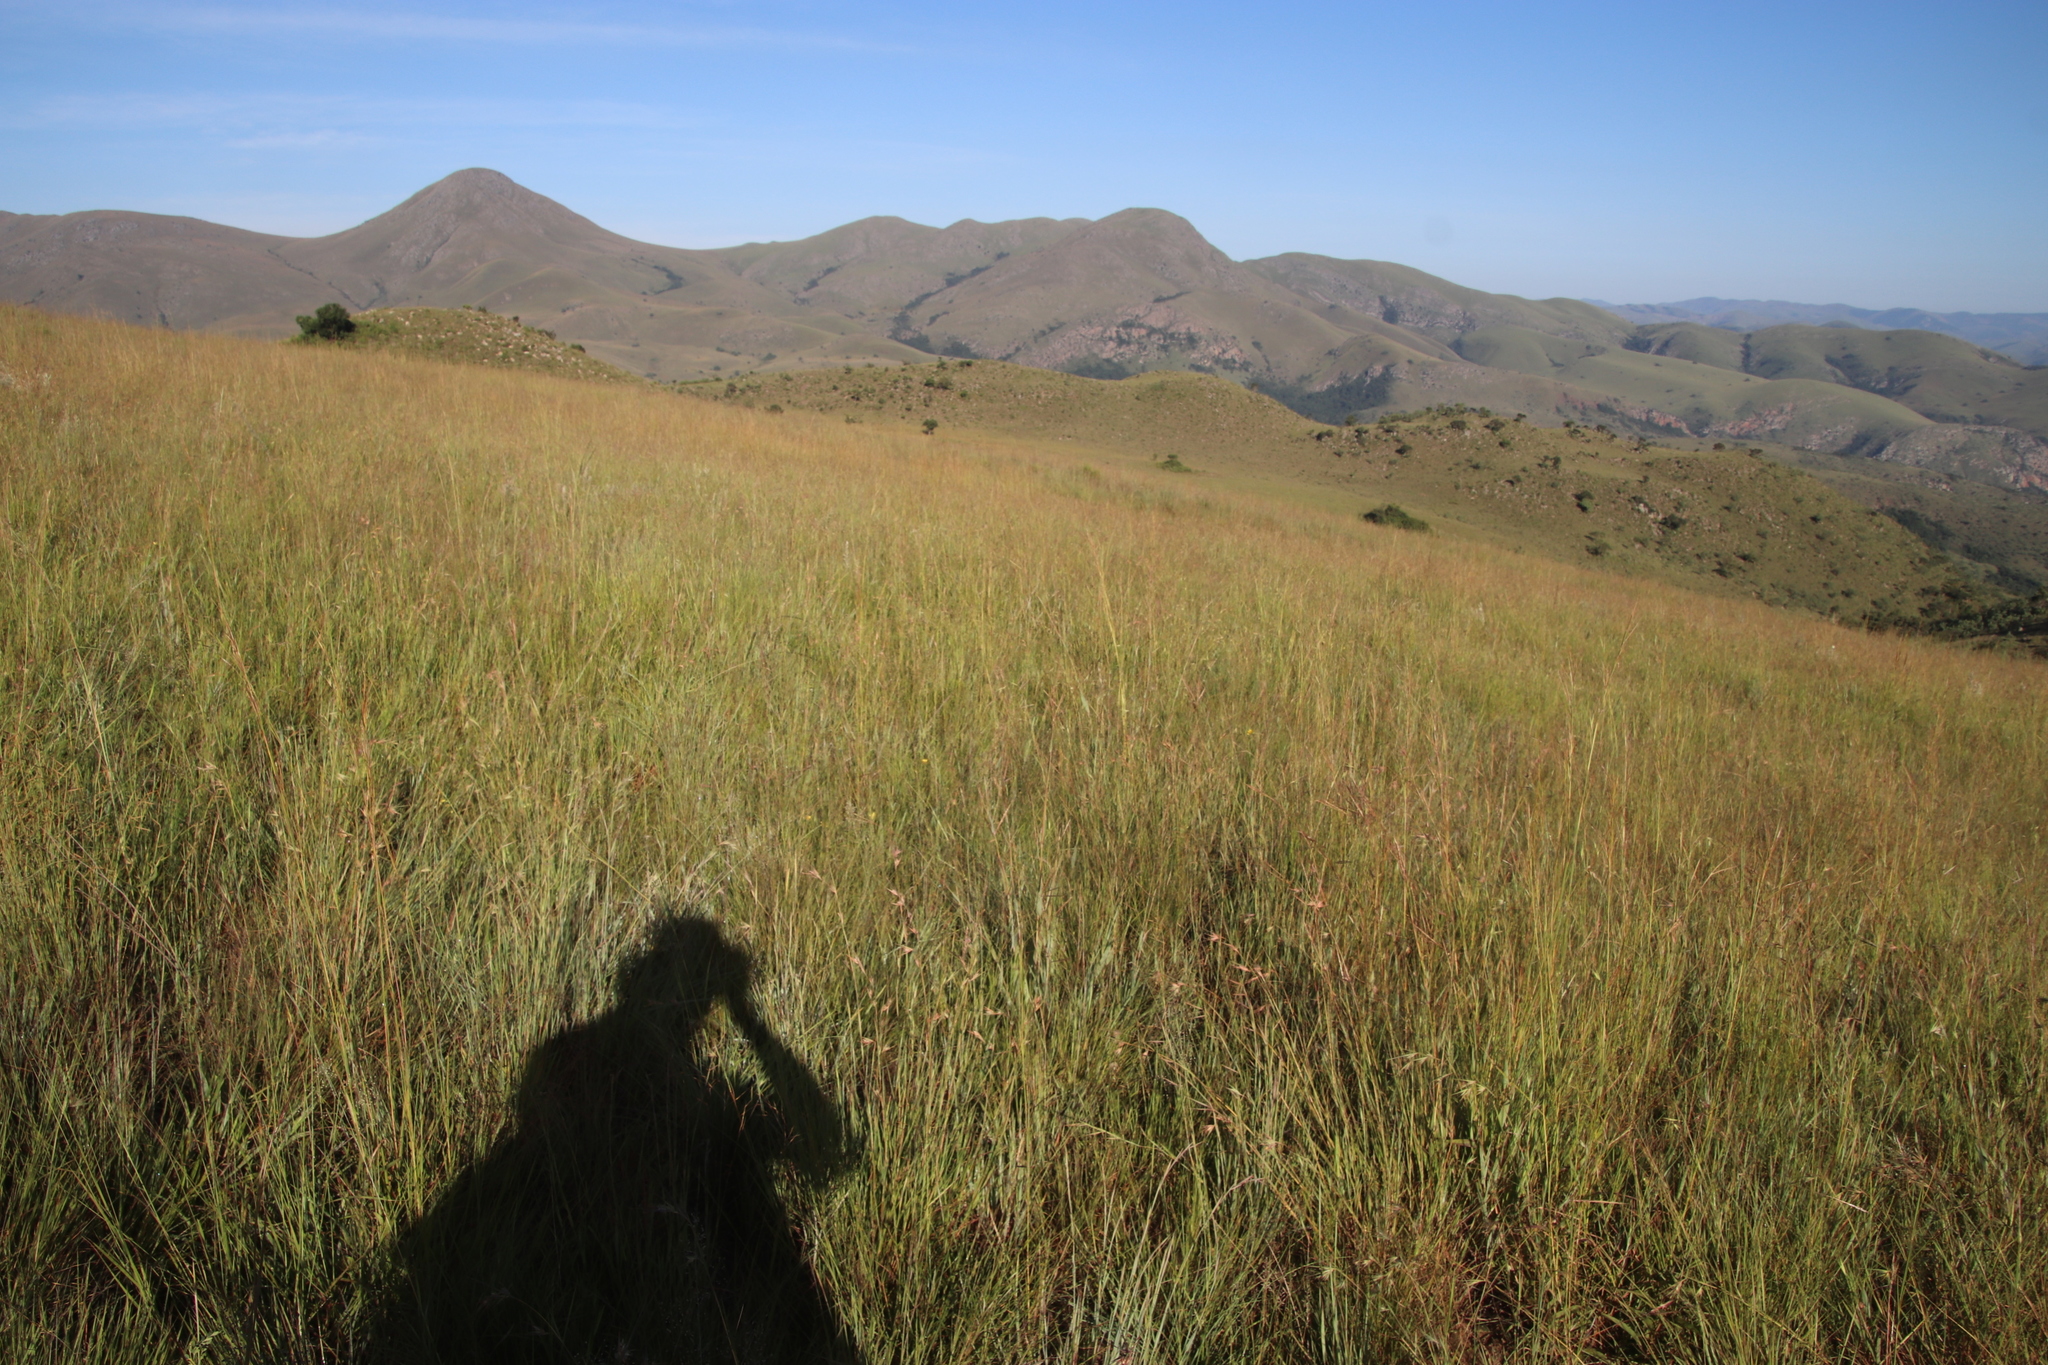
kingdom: Plantae
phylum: Tracheophyta
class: Liliopsida
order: Poales
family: Poaceae
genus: Themeda
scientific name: Themeda triandra
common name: Kangaroo grass
